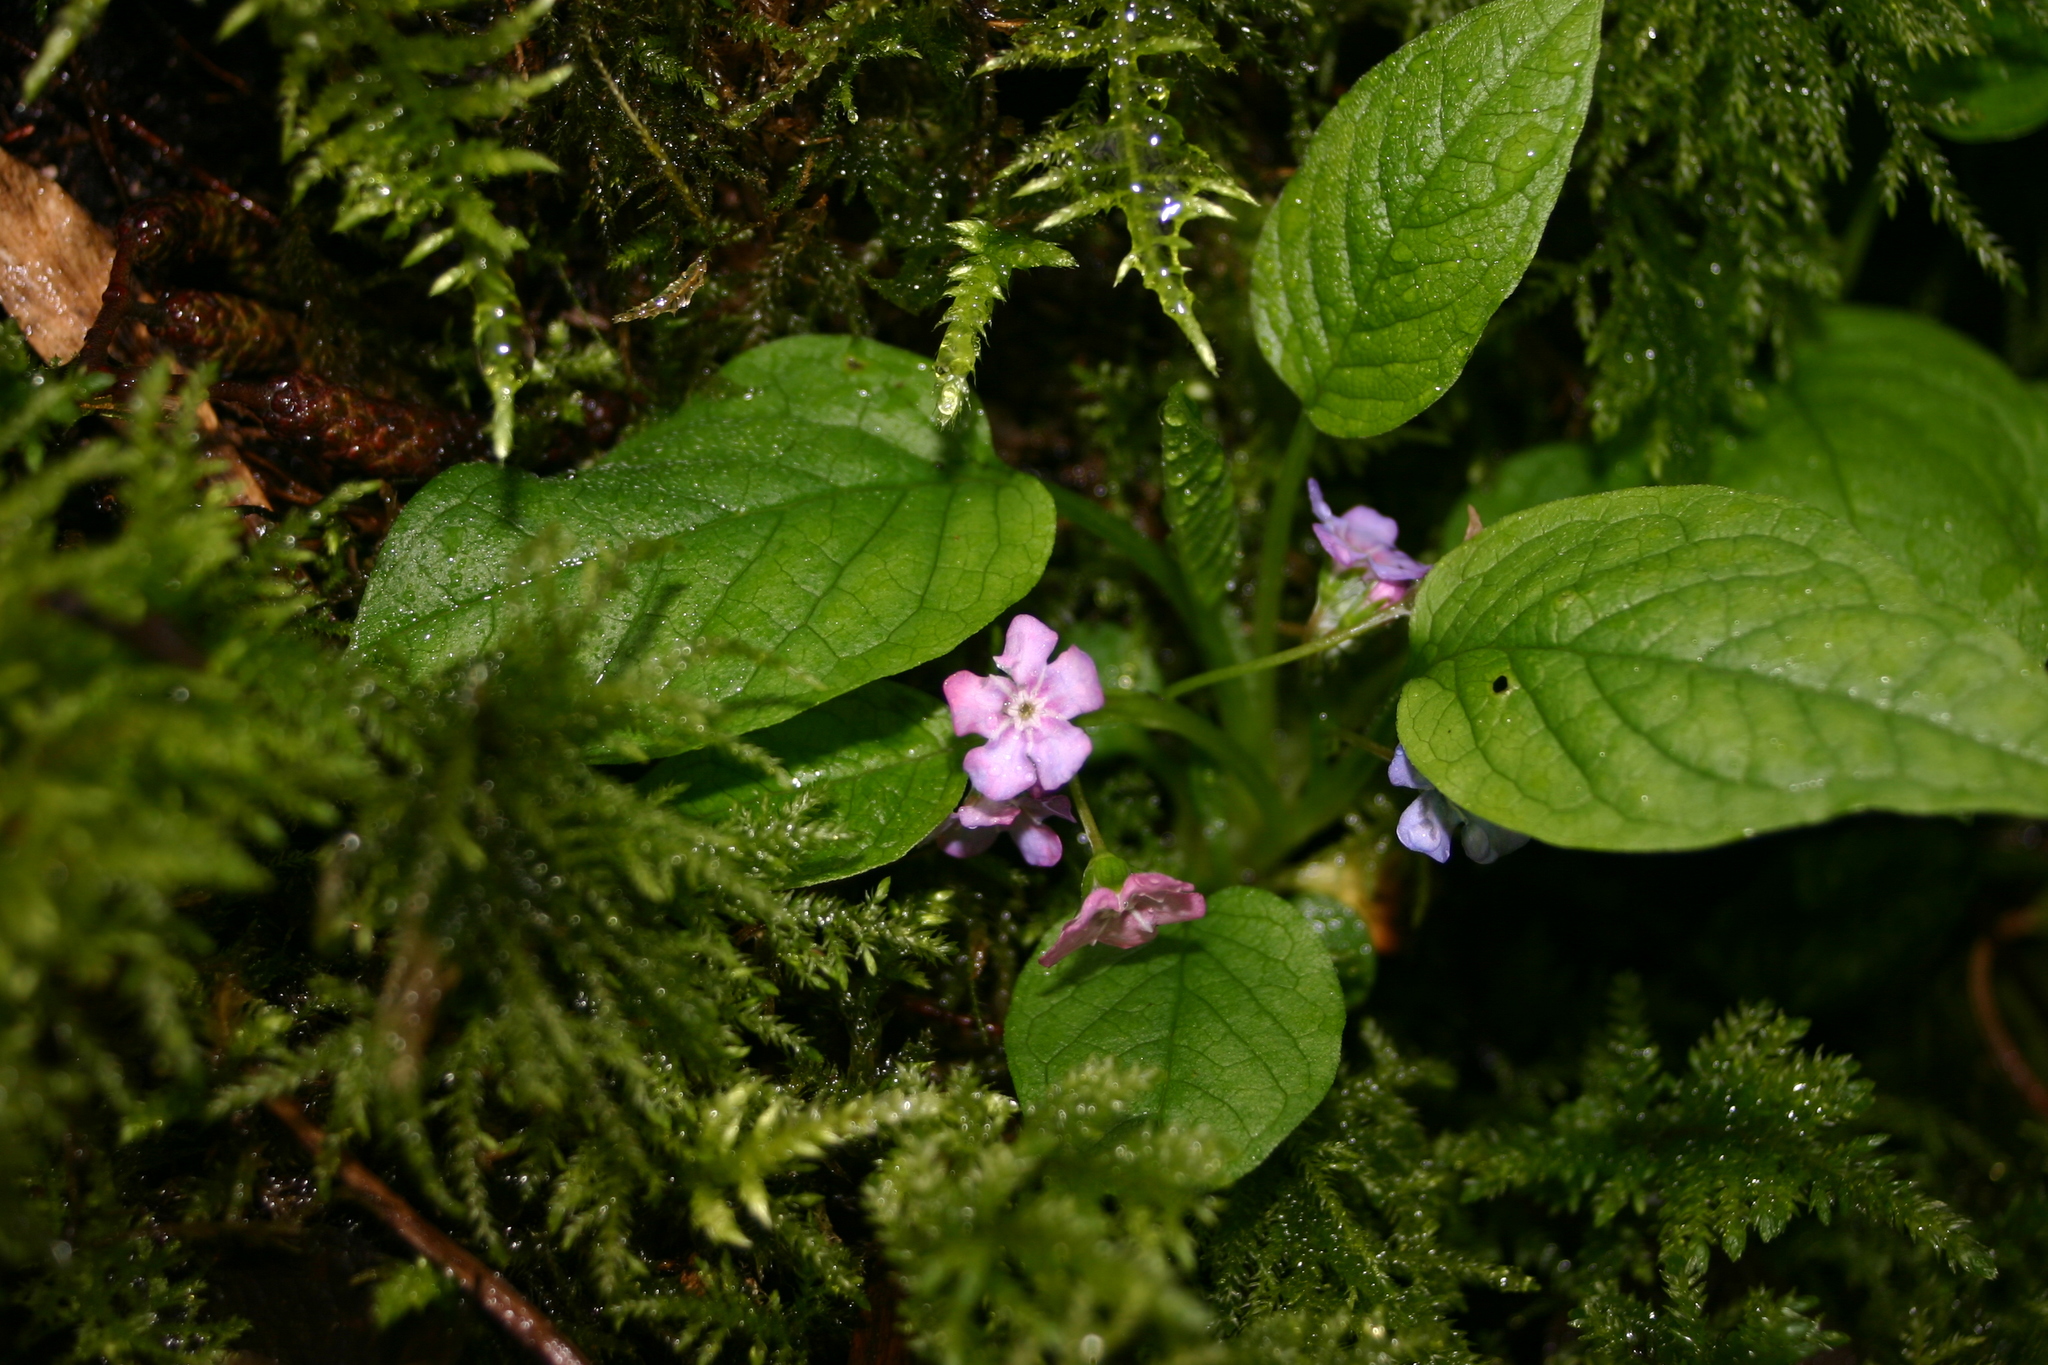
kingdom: Plantae
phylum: Tracheophyta
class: Magnoliopsida
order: Boraginales
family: Boraginaceae
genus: Omphalodes
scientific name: Omphalodes verna
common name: Blue-eyed-mary
